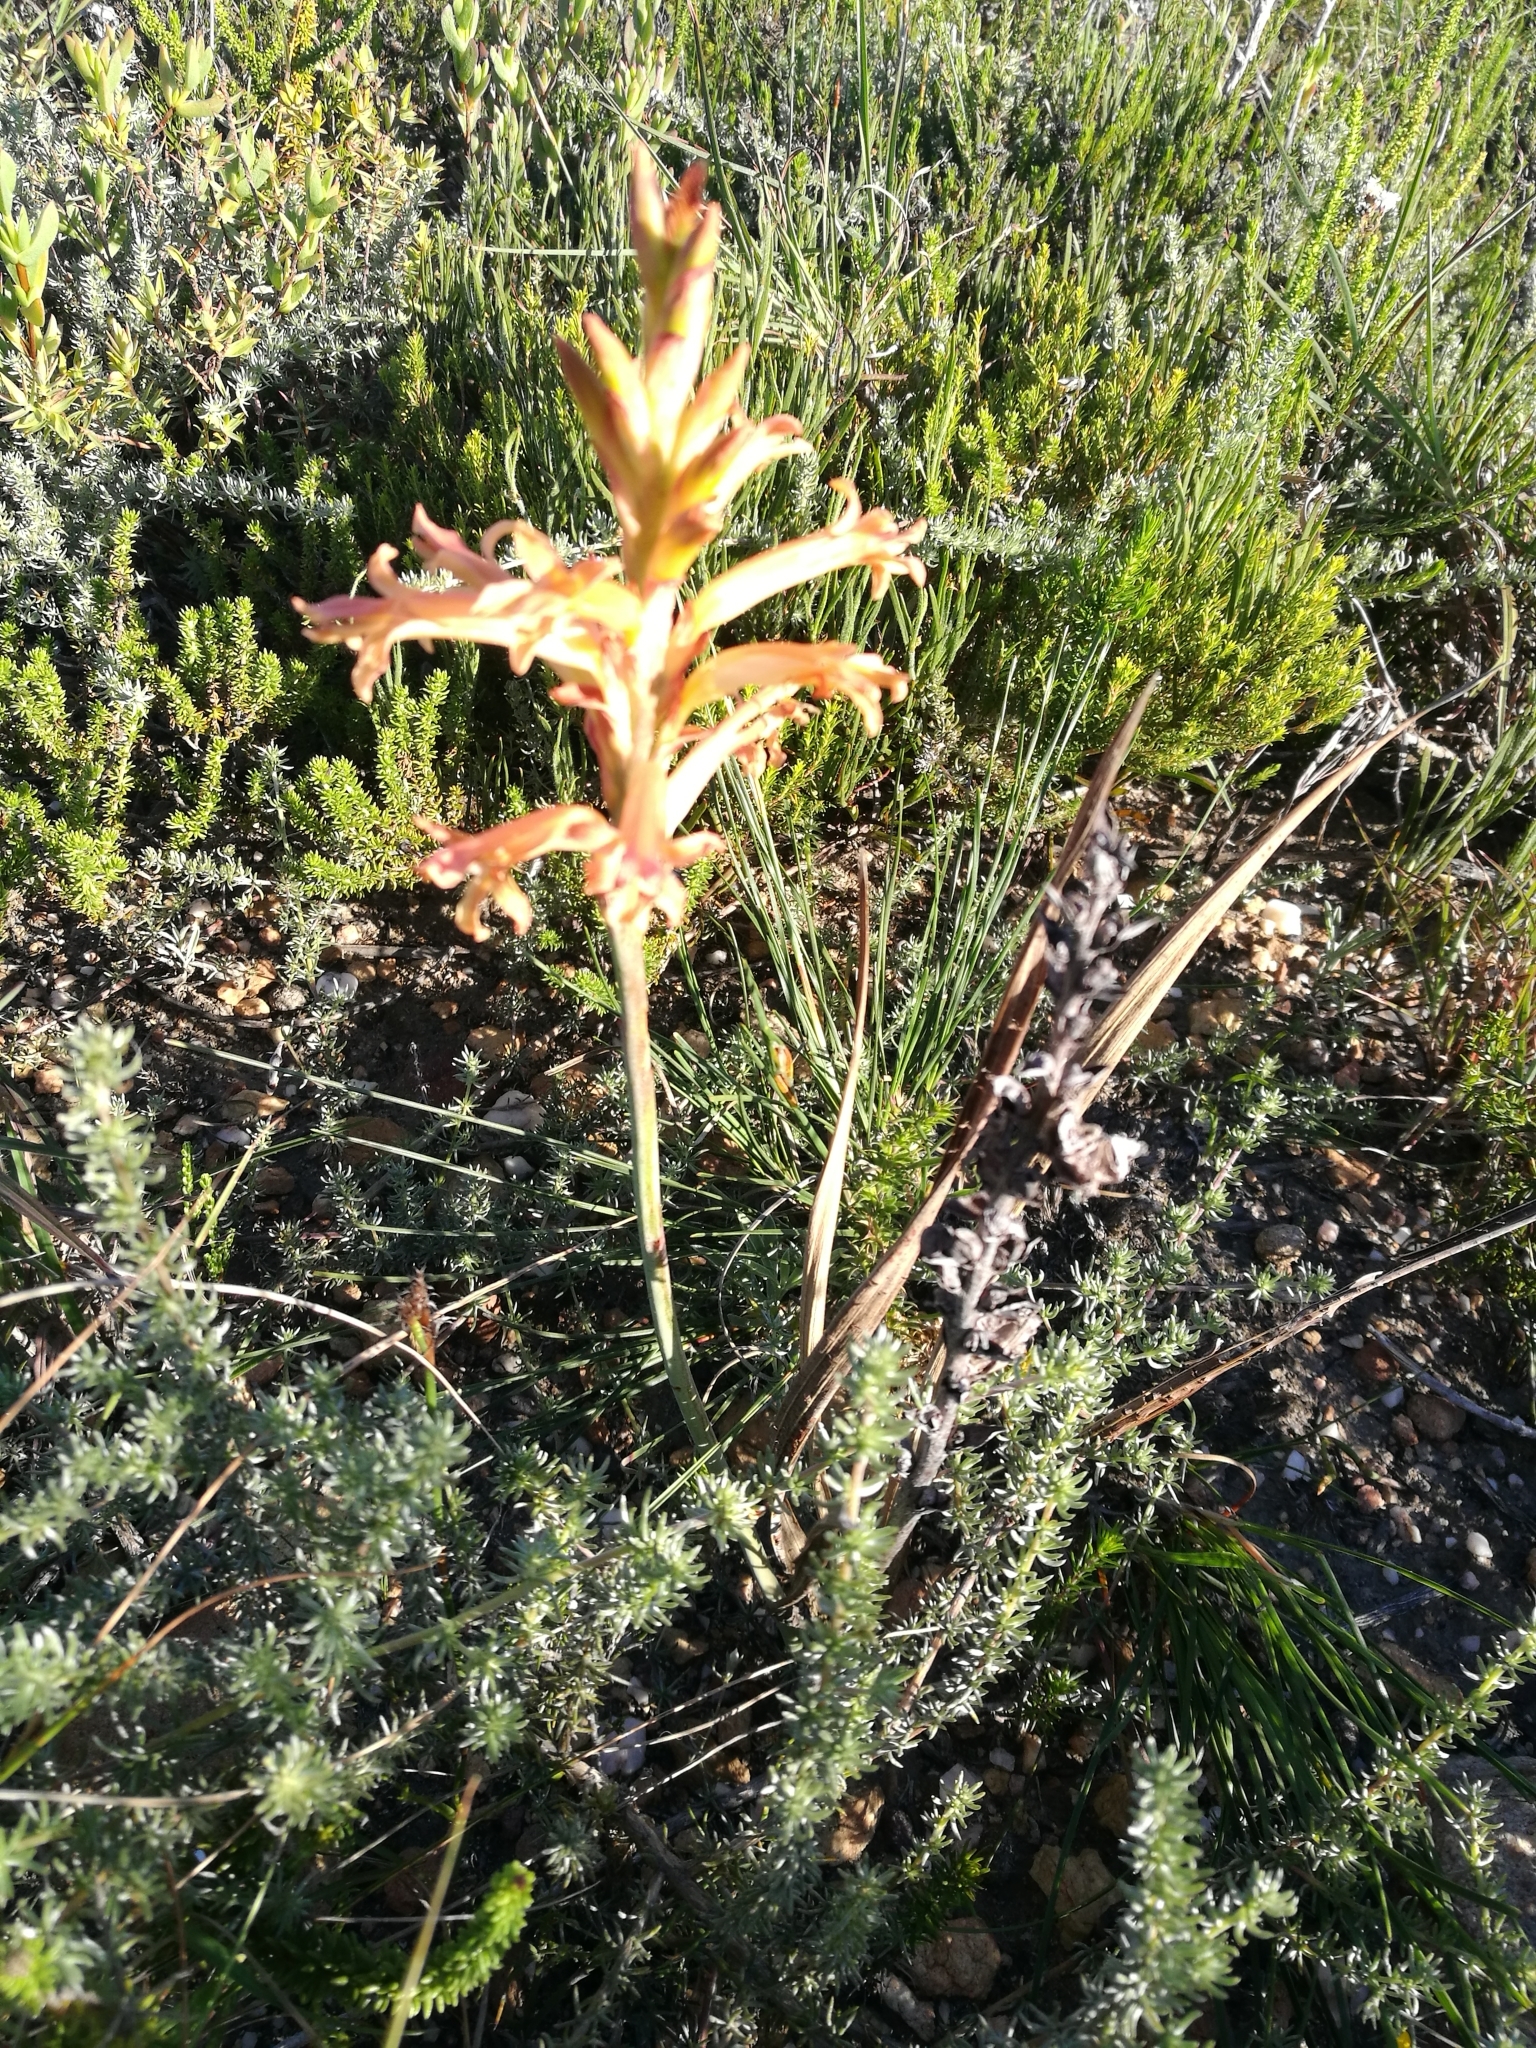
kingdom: Plantae
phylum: Tracheophyta
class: Liliopsida
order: Asparagales
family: Iridaceae
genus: Tritoniopsis
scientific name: Tritoniopsis antholyza
